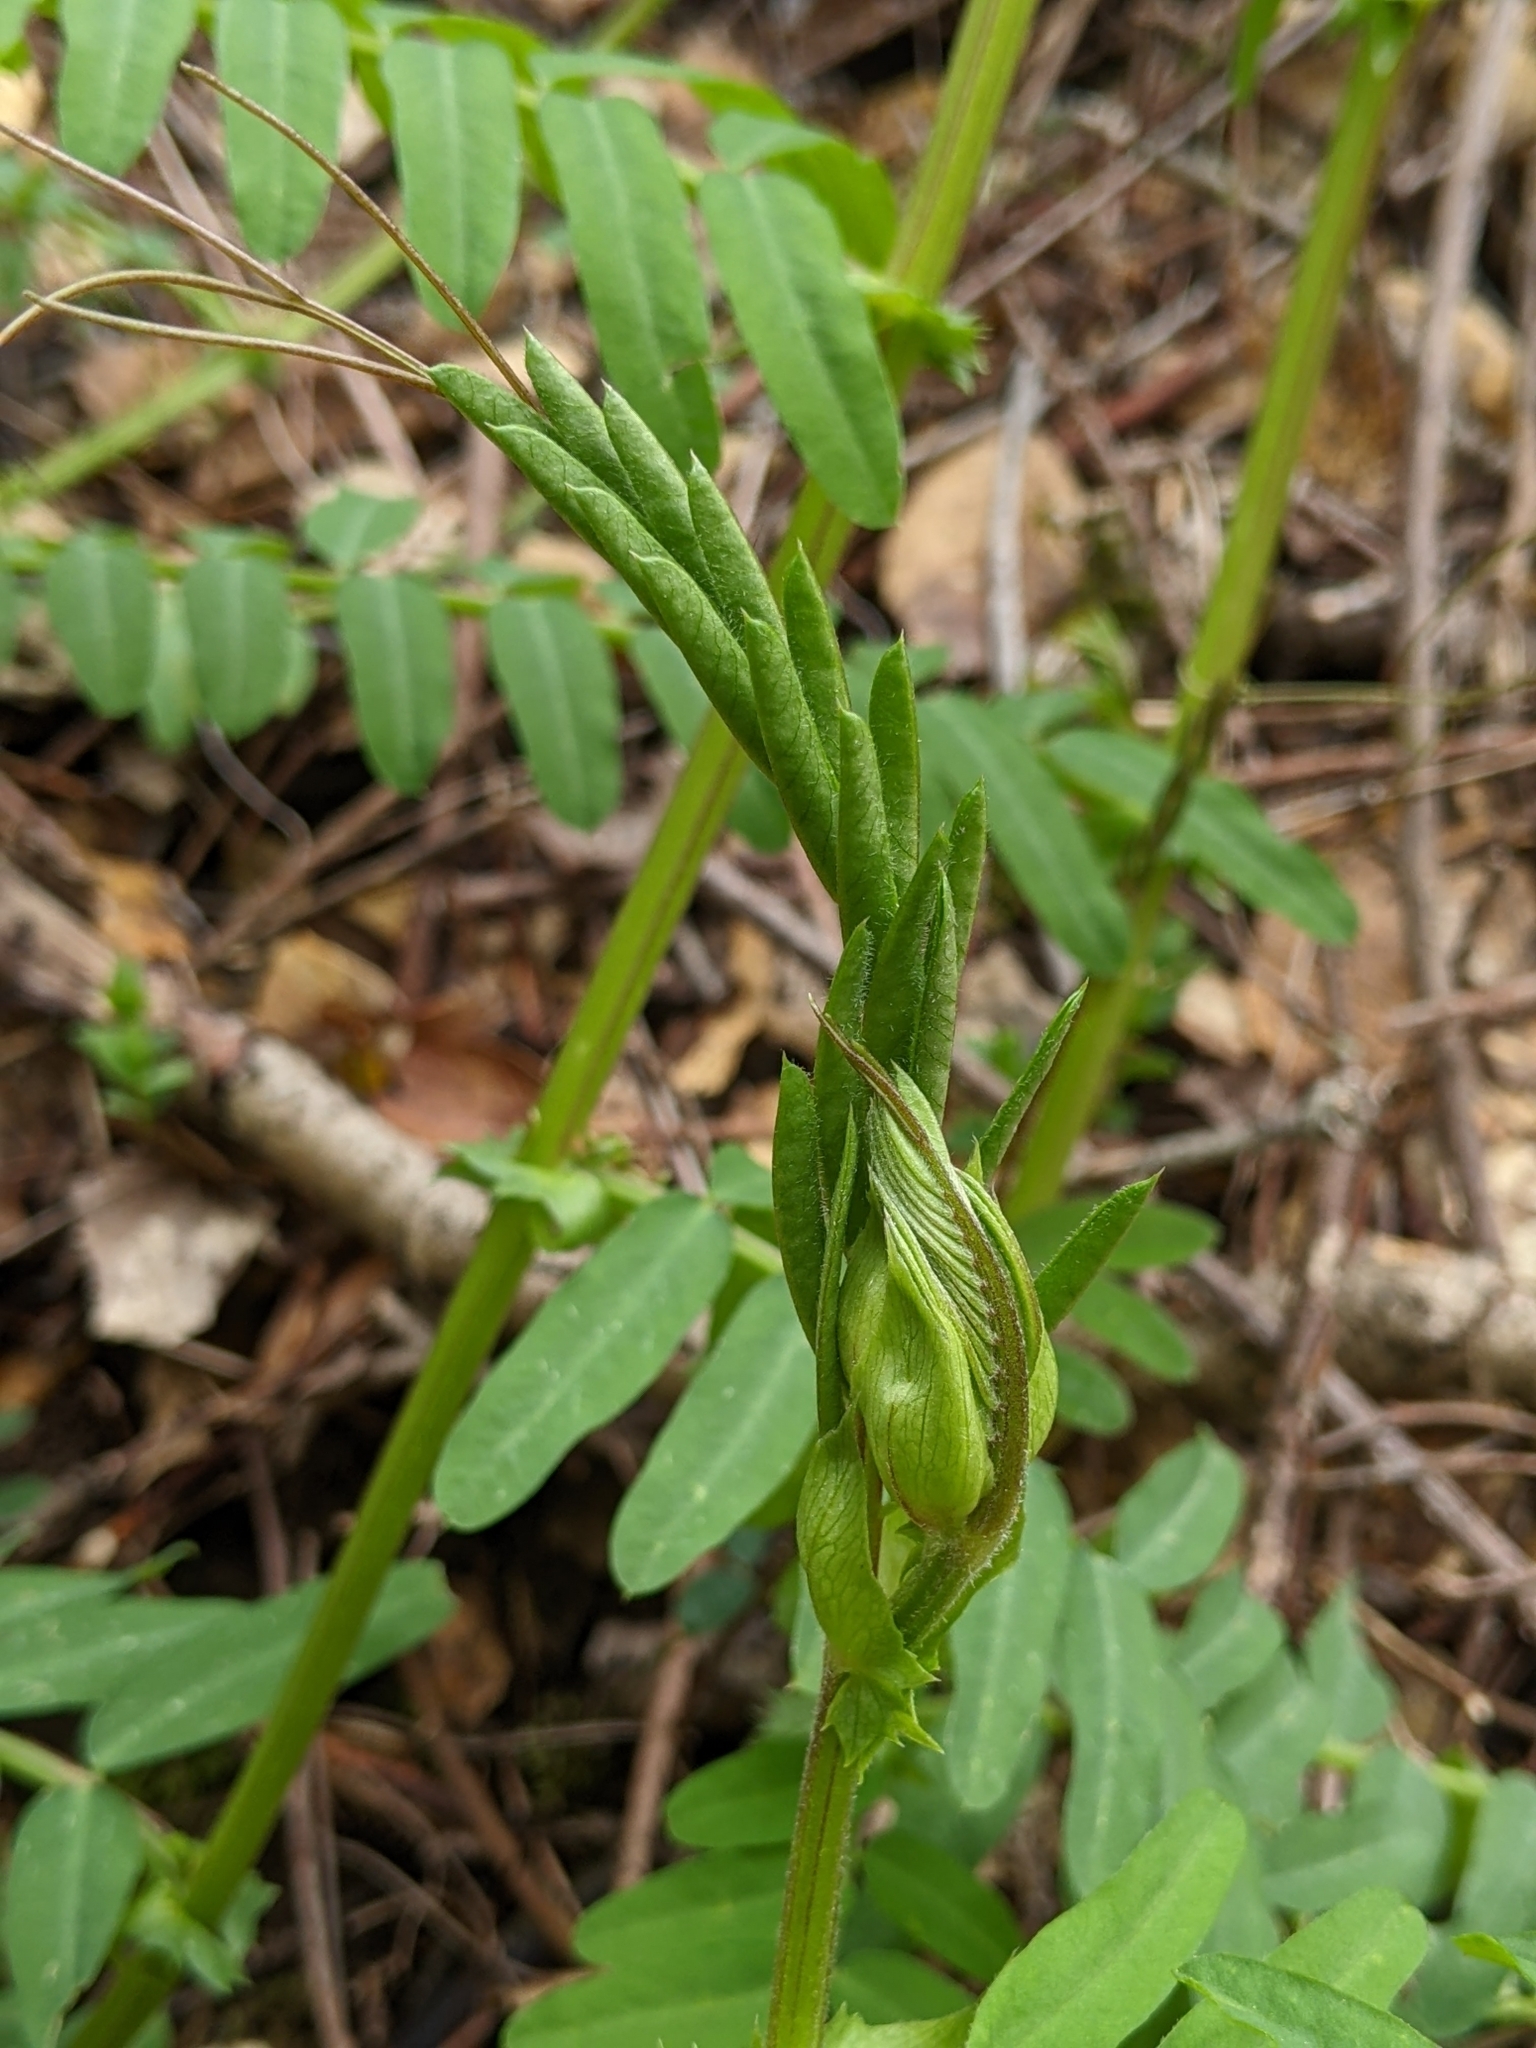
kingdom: Plantae
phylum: Tracheophyta
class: Magnoliopsida
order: Fabales
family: Fabaceae
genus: Vicia
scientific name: Vicia
